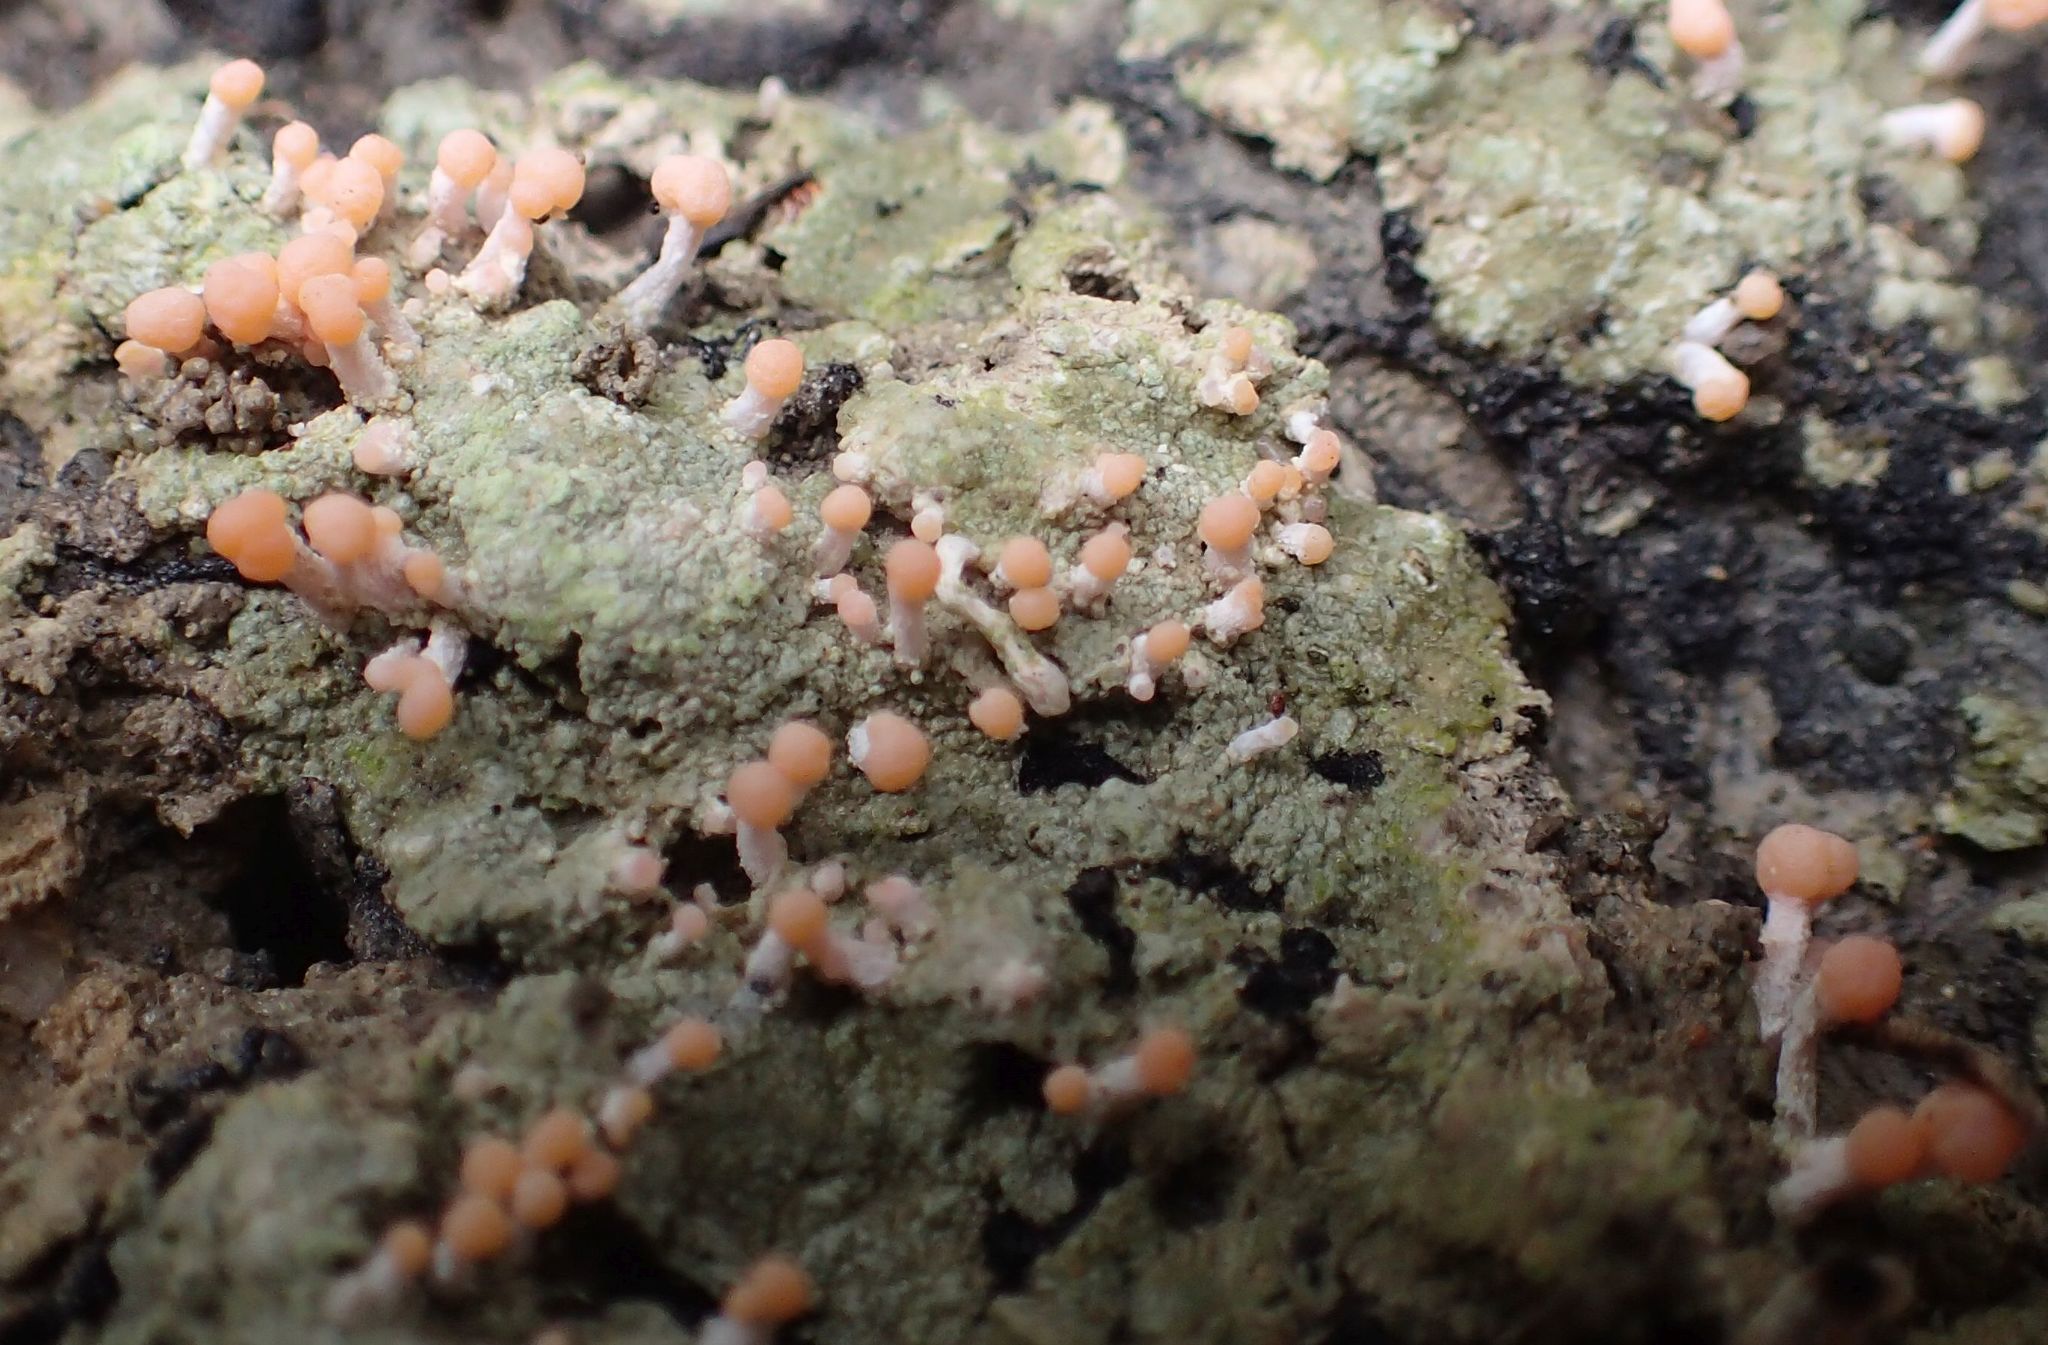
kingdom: Fungi
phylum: Ascomycota
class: Lecanoromycetes
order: Pertusariales
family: Icmadophilaceae
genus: Dibaeis
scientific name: Dibaeis arcuata
